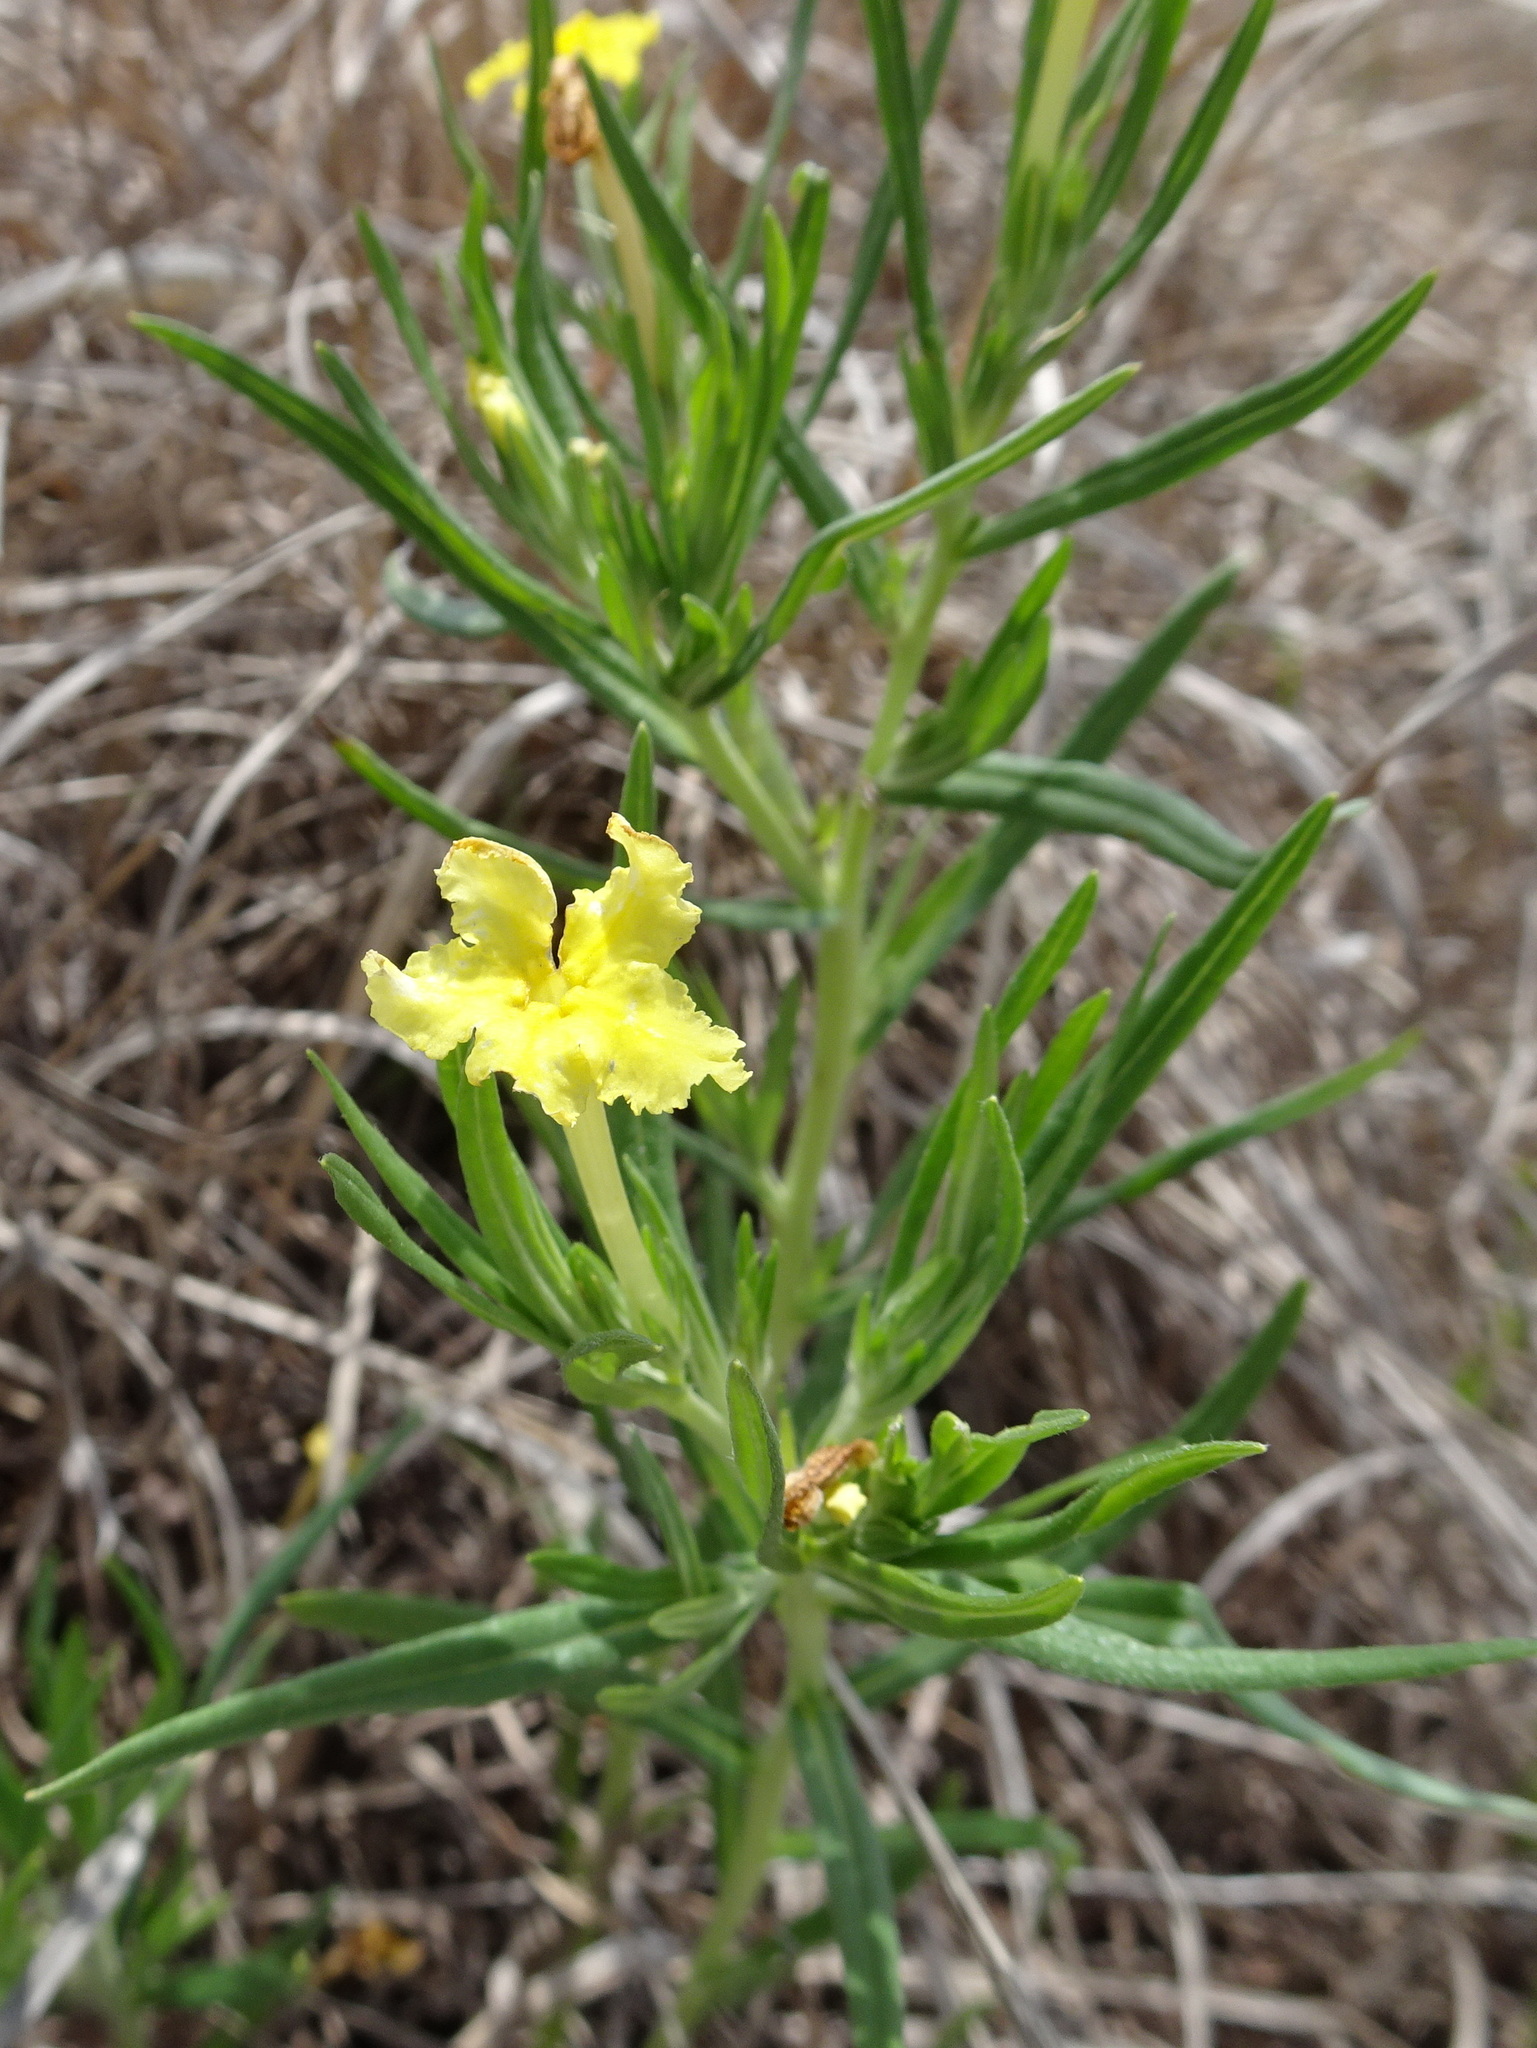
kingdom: Plantae
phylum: Tracheophyta
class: Magnoliopsida
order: Boraginales
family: Boraginaceae
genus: Lithospermum
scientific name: Lithospermum incisum
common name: Fringed gromwell
